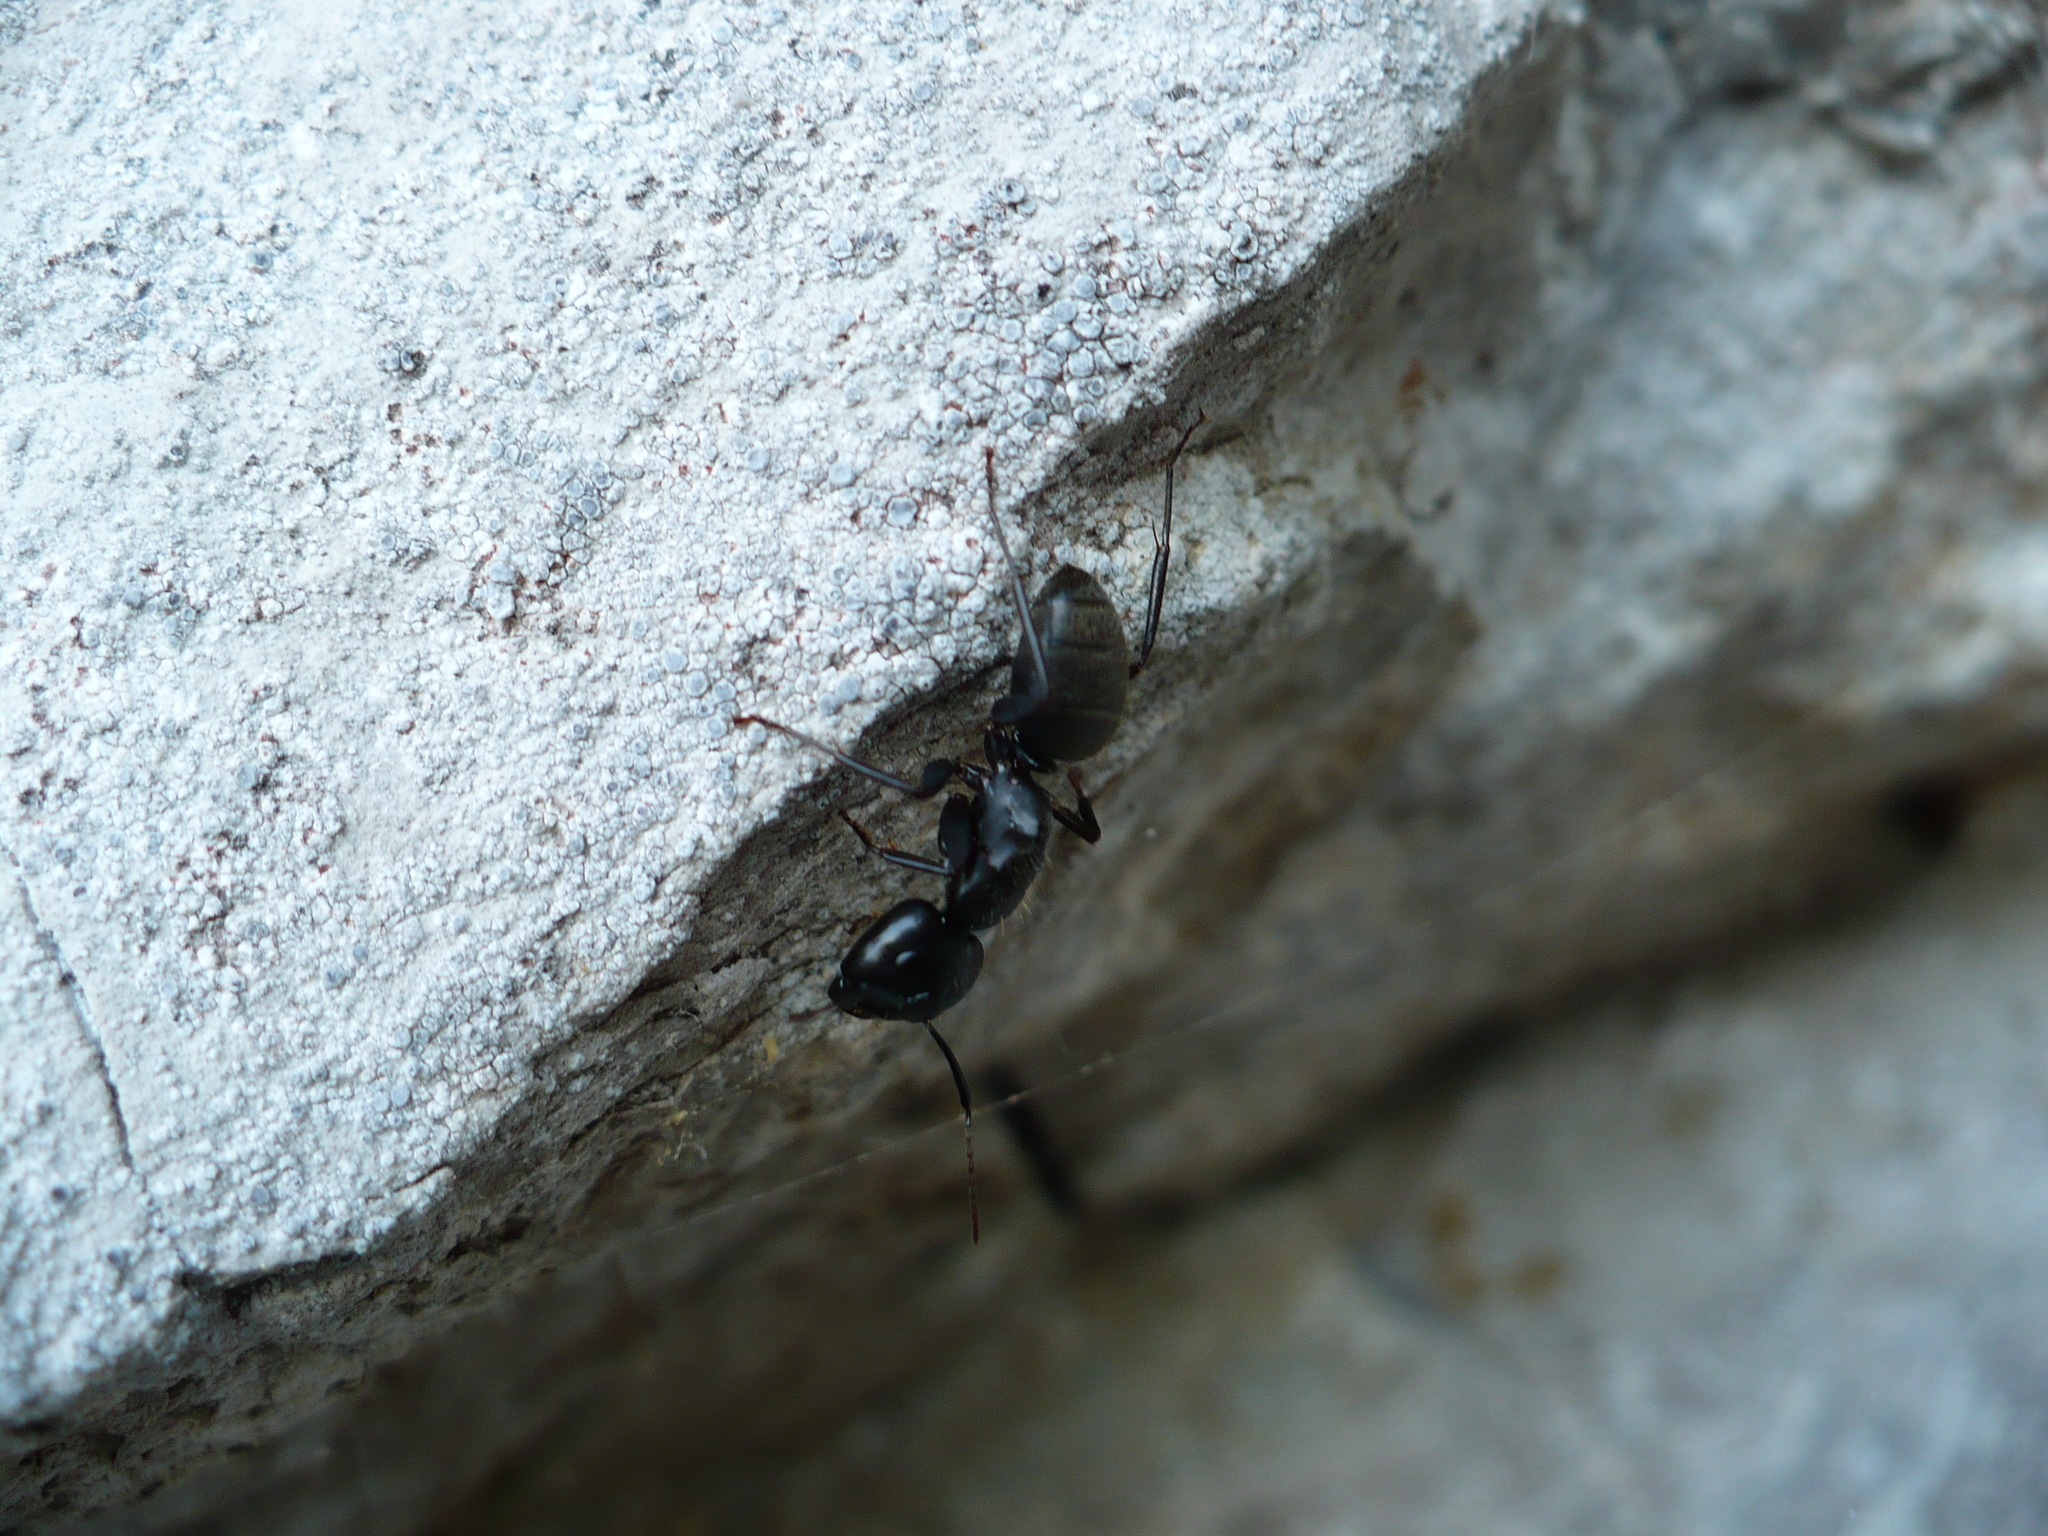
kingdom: Animalia
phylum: Arthropoda
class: Insecta
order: Hymenoptera
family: Formicidae
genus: Camponotus
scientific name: Camponotus pennsylvanicus
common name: Black carpenter ant
